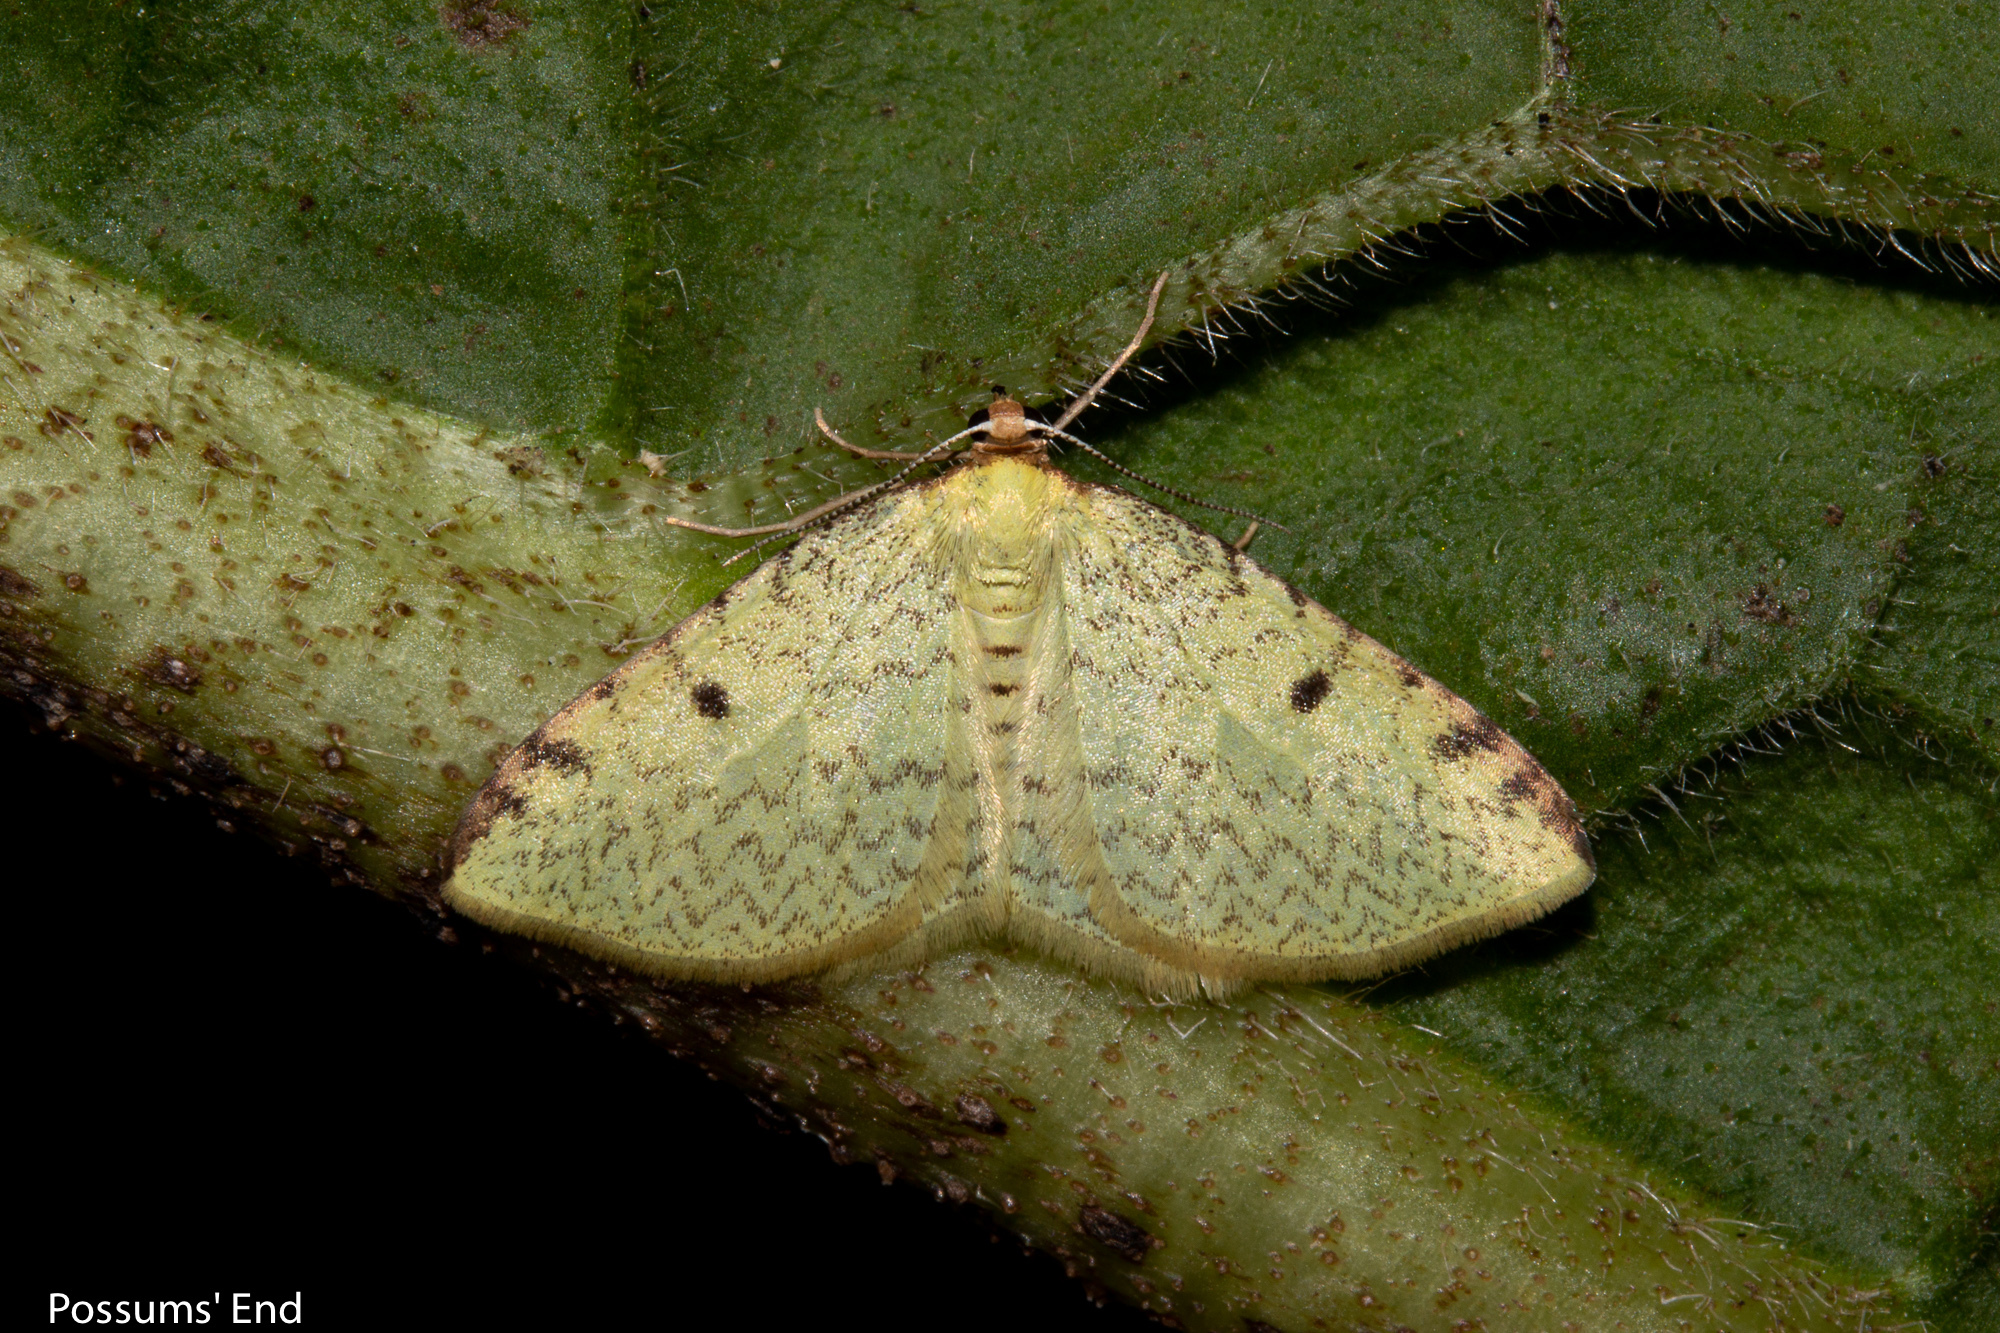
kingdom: Animalia
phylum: Arthropoda
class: Insecta
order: Lepidoptera
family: Geometridae
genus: Epiphryne
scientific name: Epiphryne undosata
